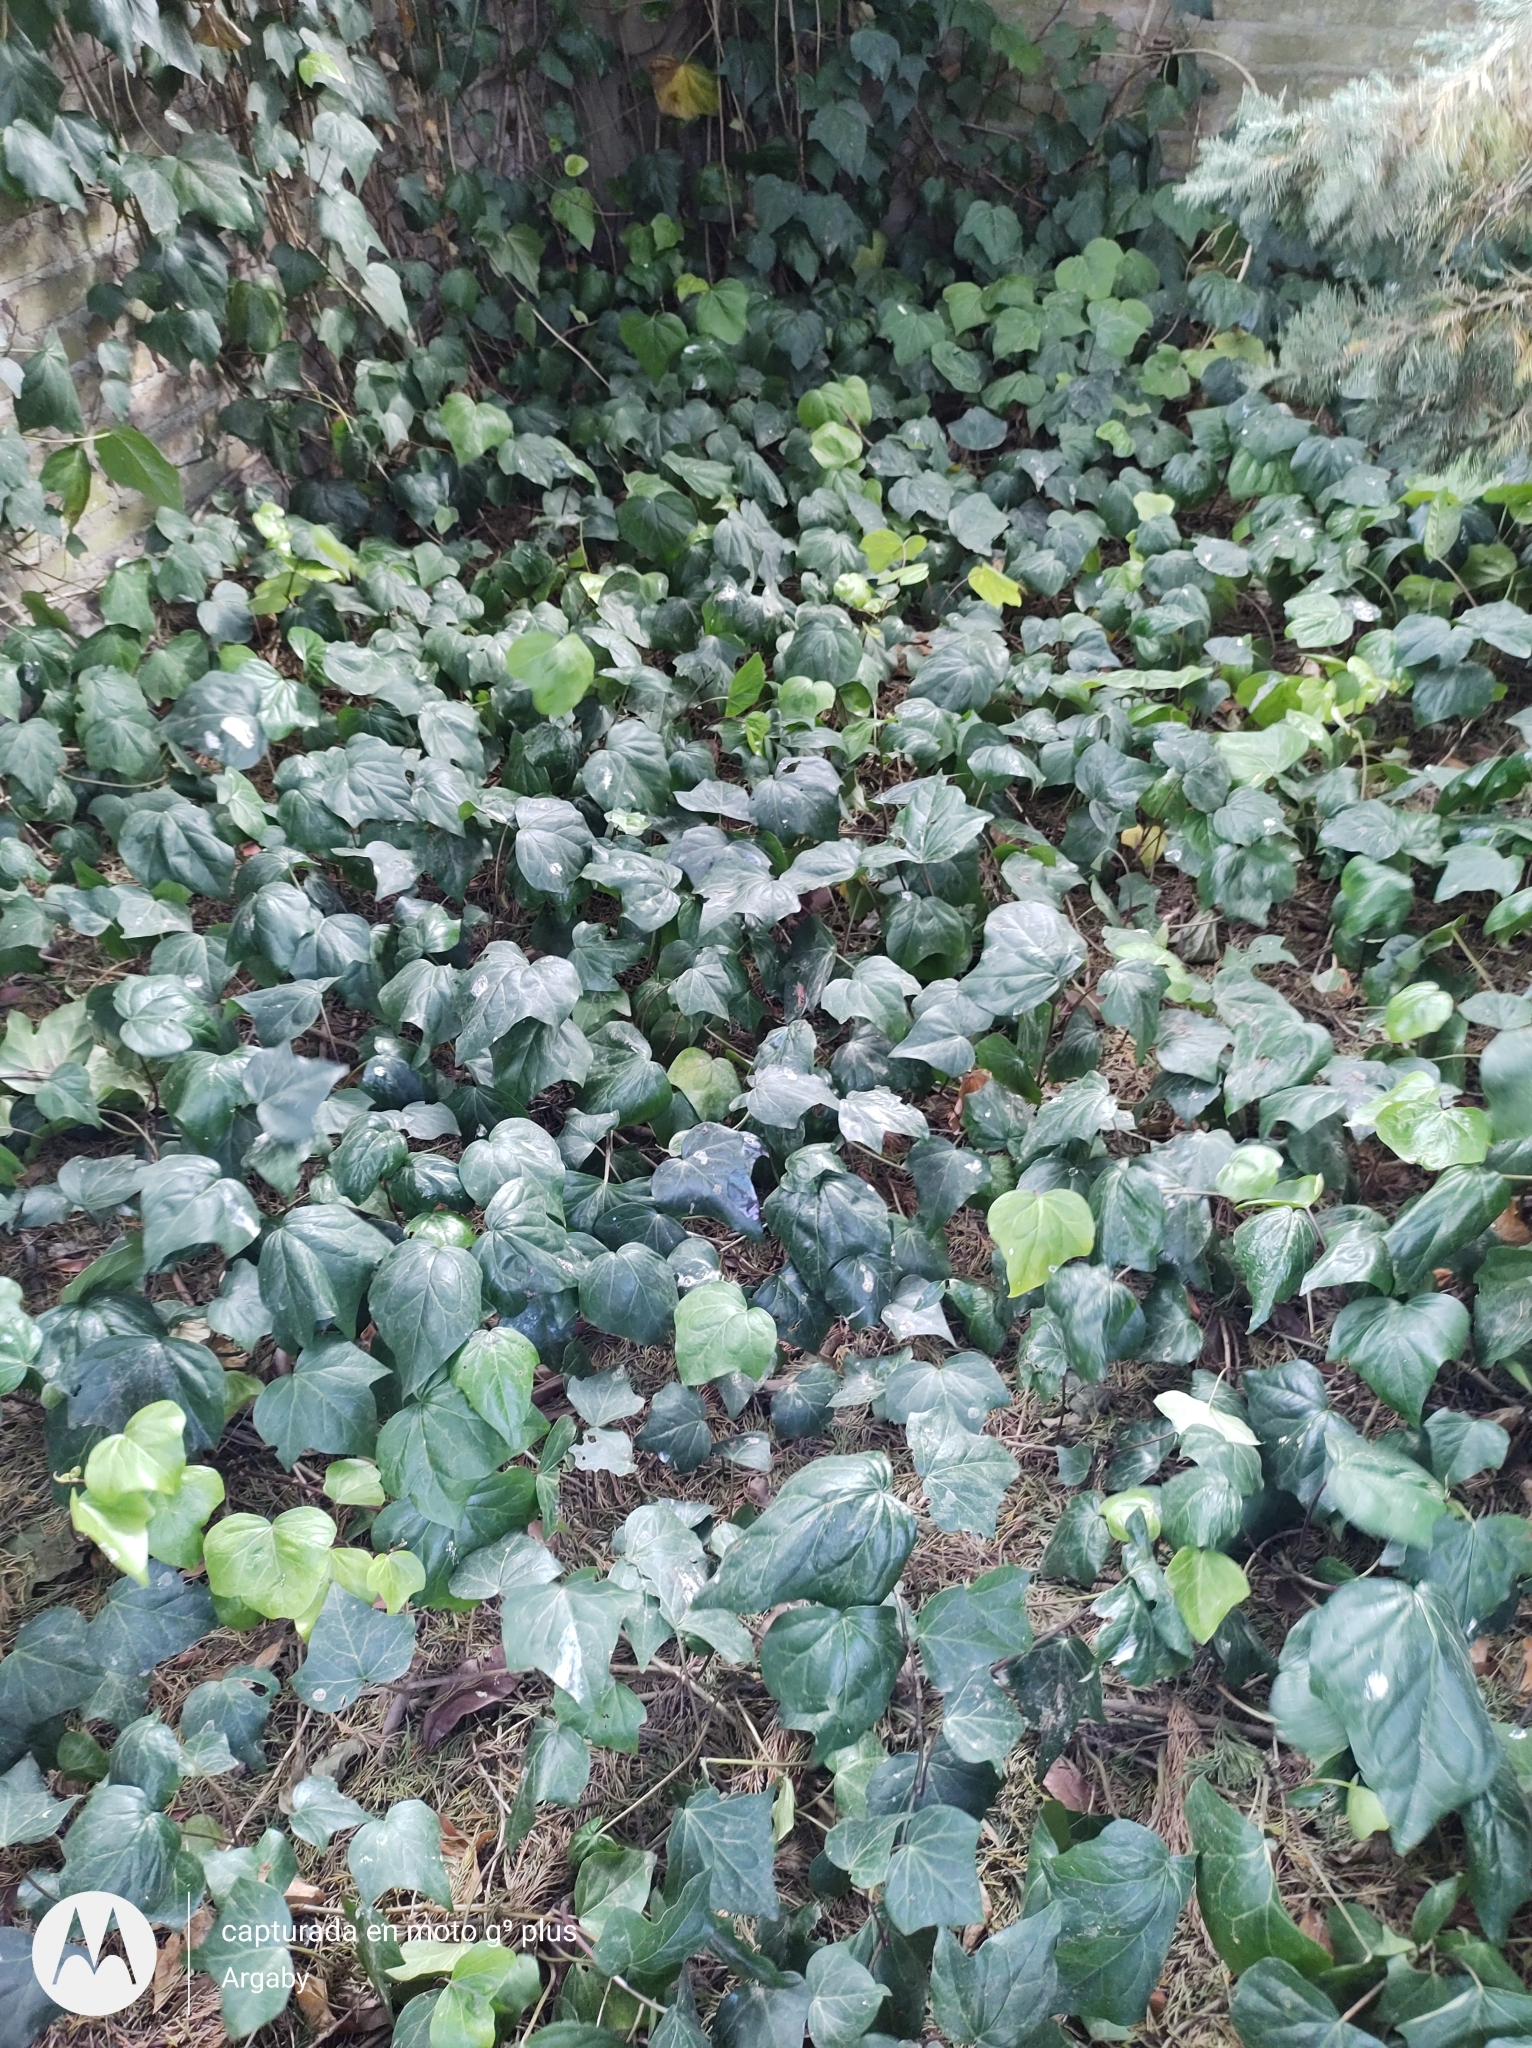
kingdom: Plantae
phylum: Tracheophyta
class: Magnoliopsida
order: Apiales
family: Araliaceae
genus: Hedera
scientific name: Hedera helix
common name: Ivy
